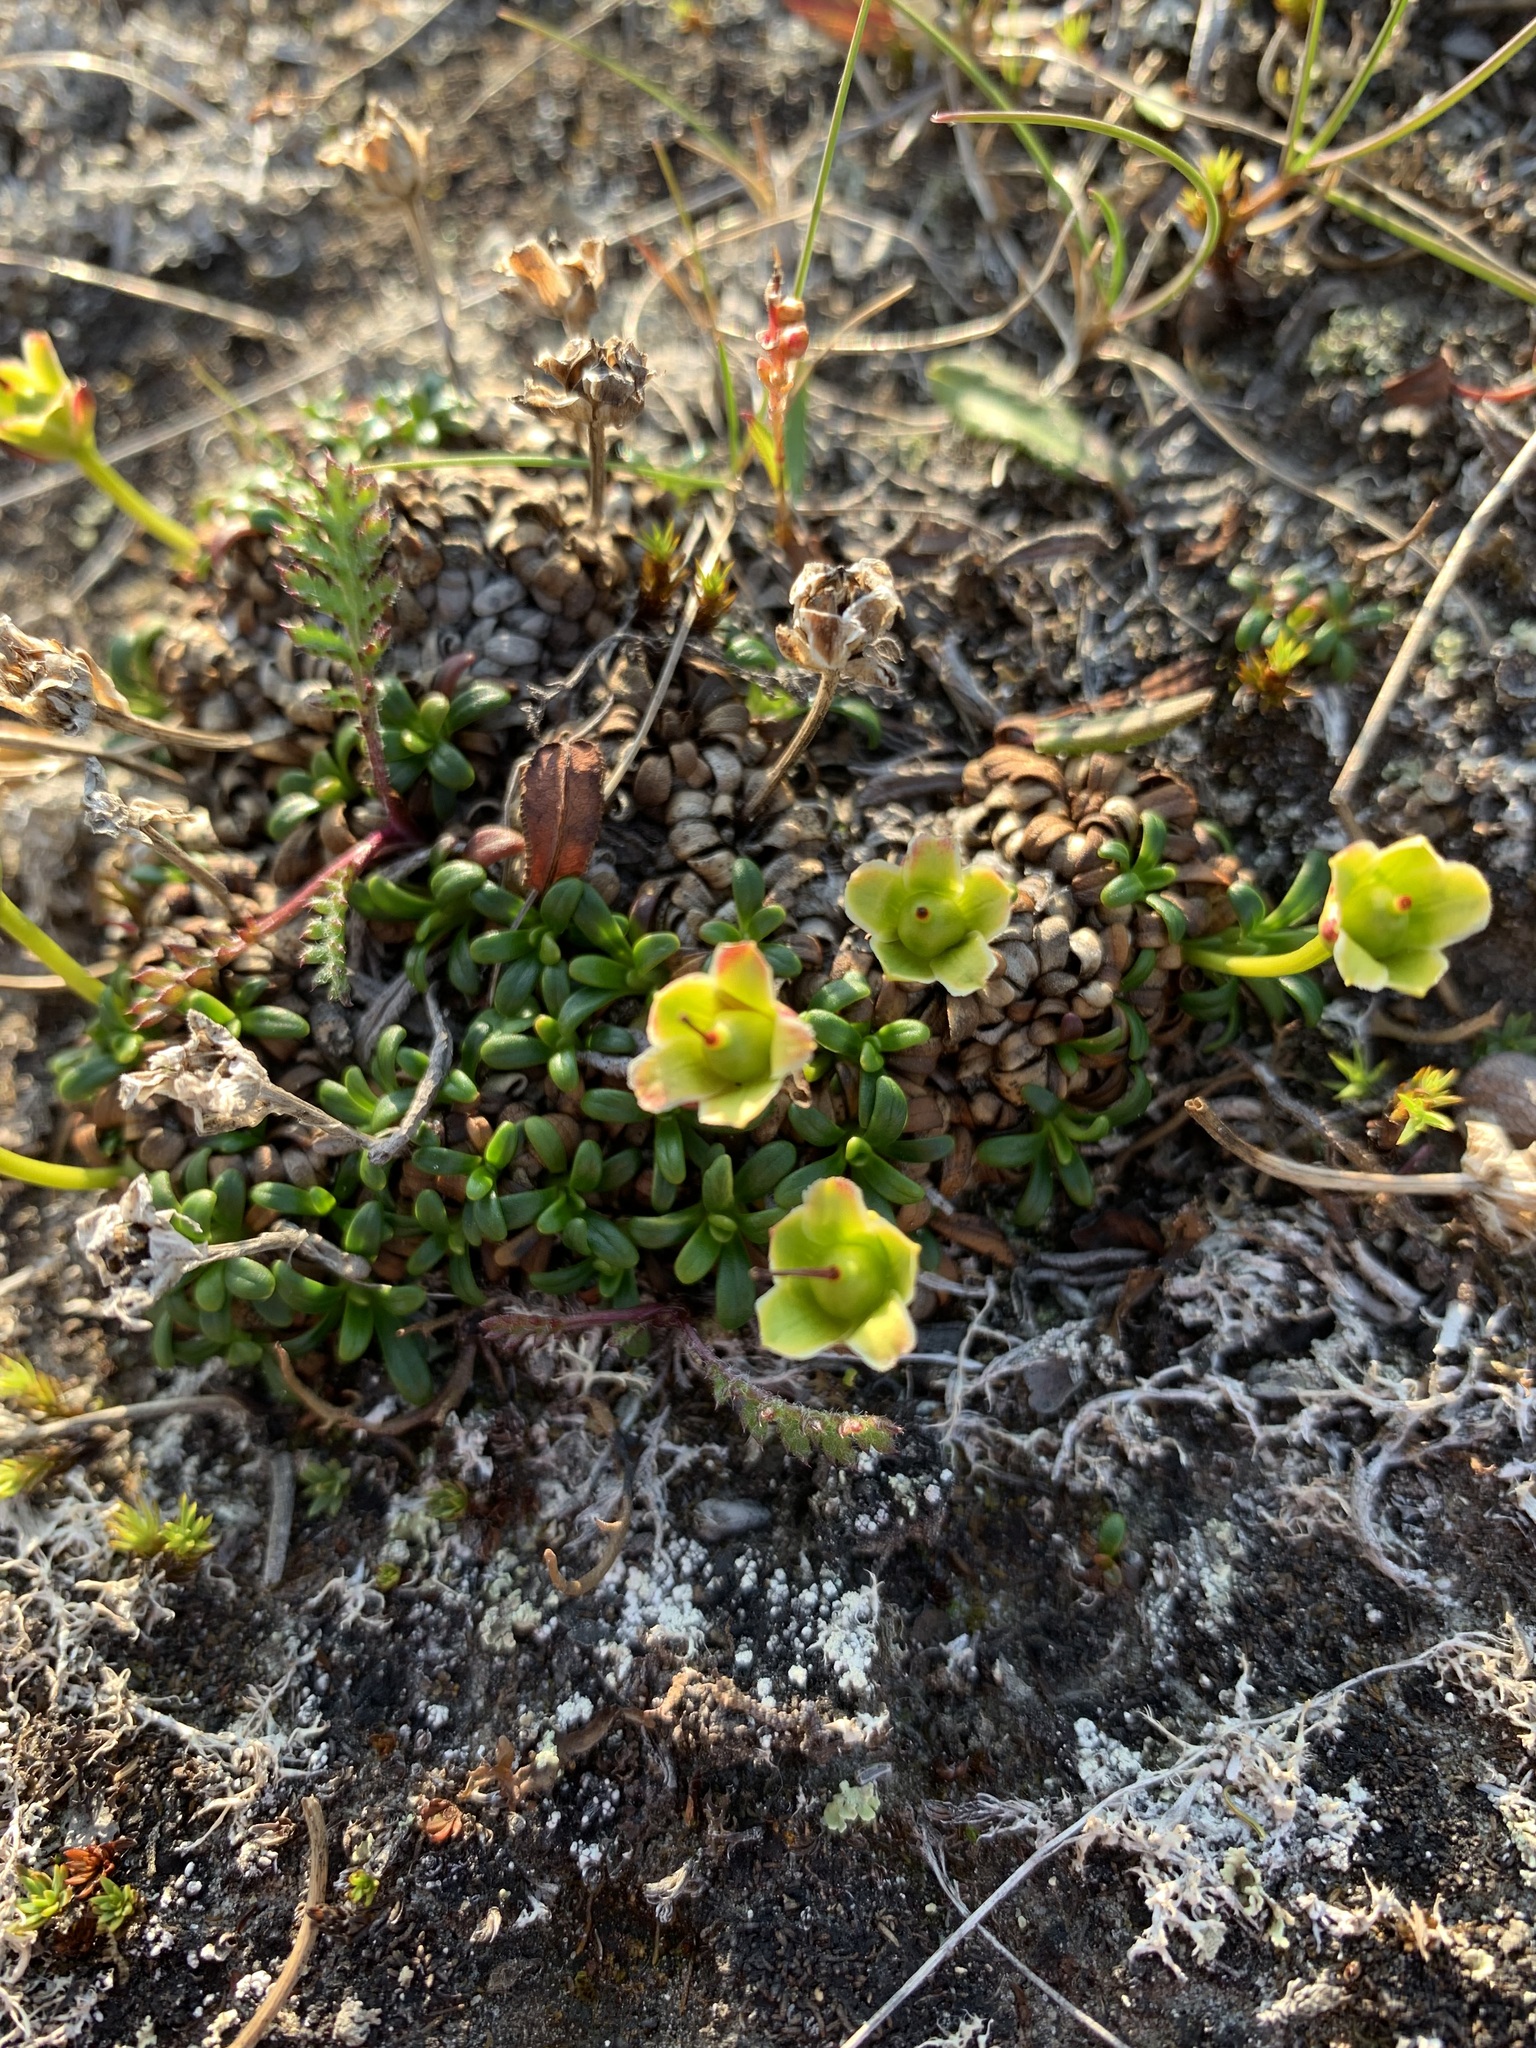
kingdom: Plantae
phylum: Tracheophyta
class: Magnoliopsida
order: Ericales
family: Diapensiaceae
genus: Diapensia
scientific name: Diapensia lapponica
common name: Diapensia
